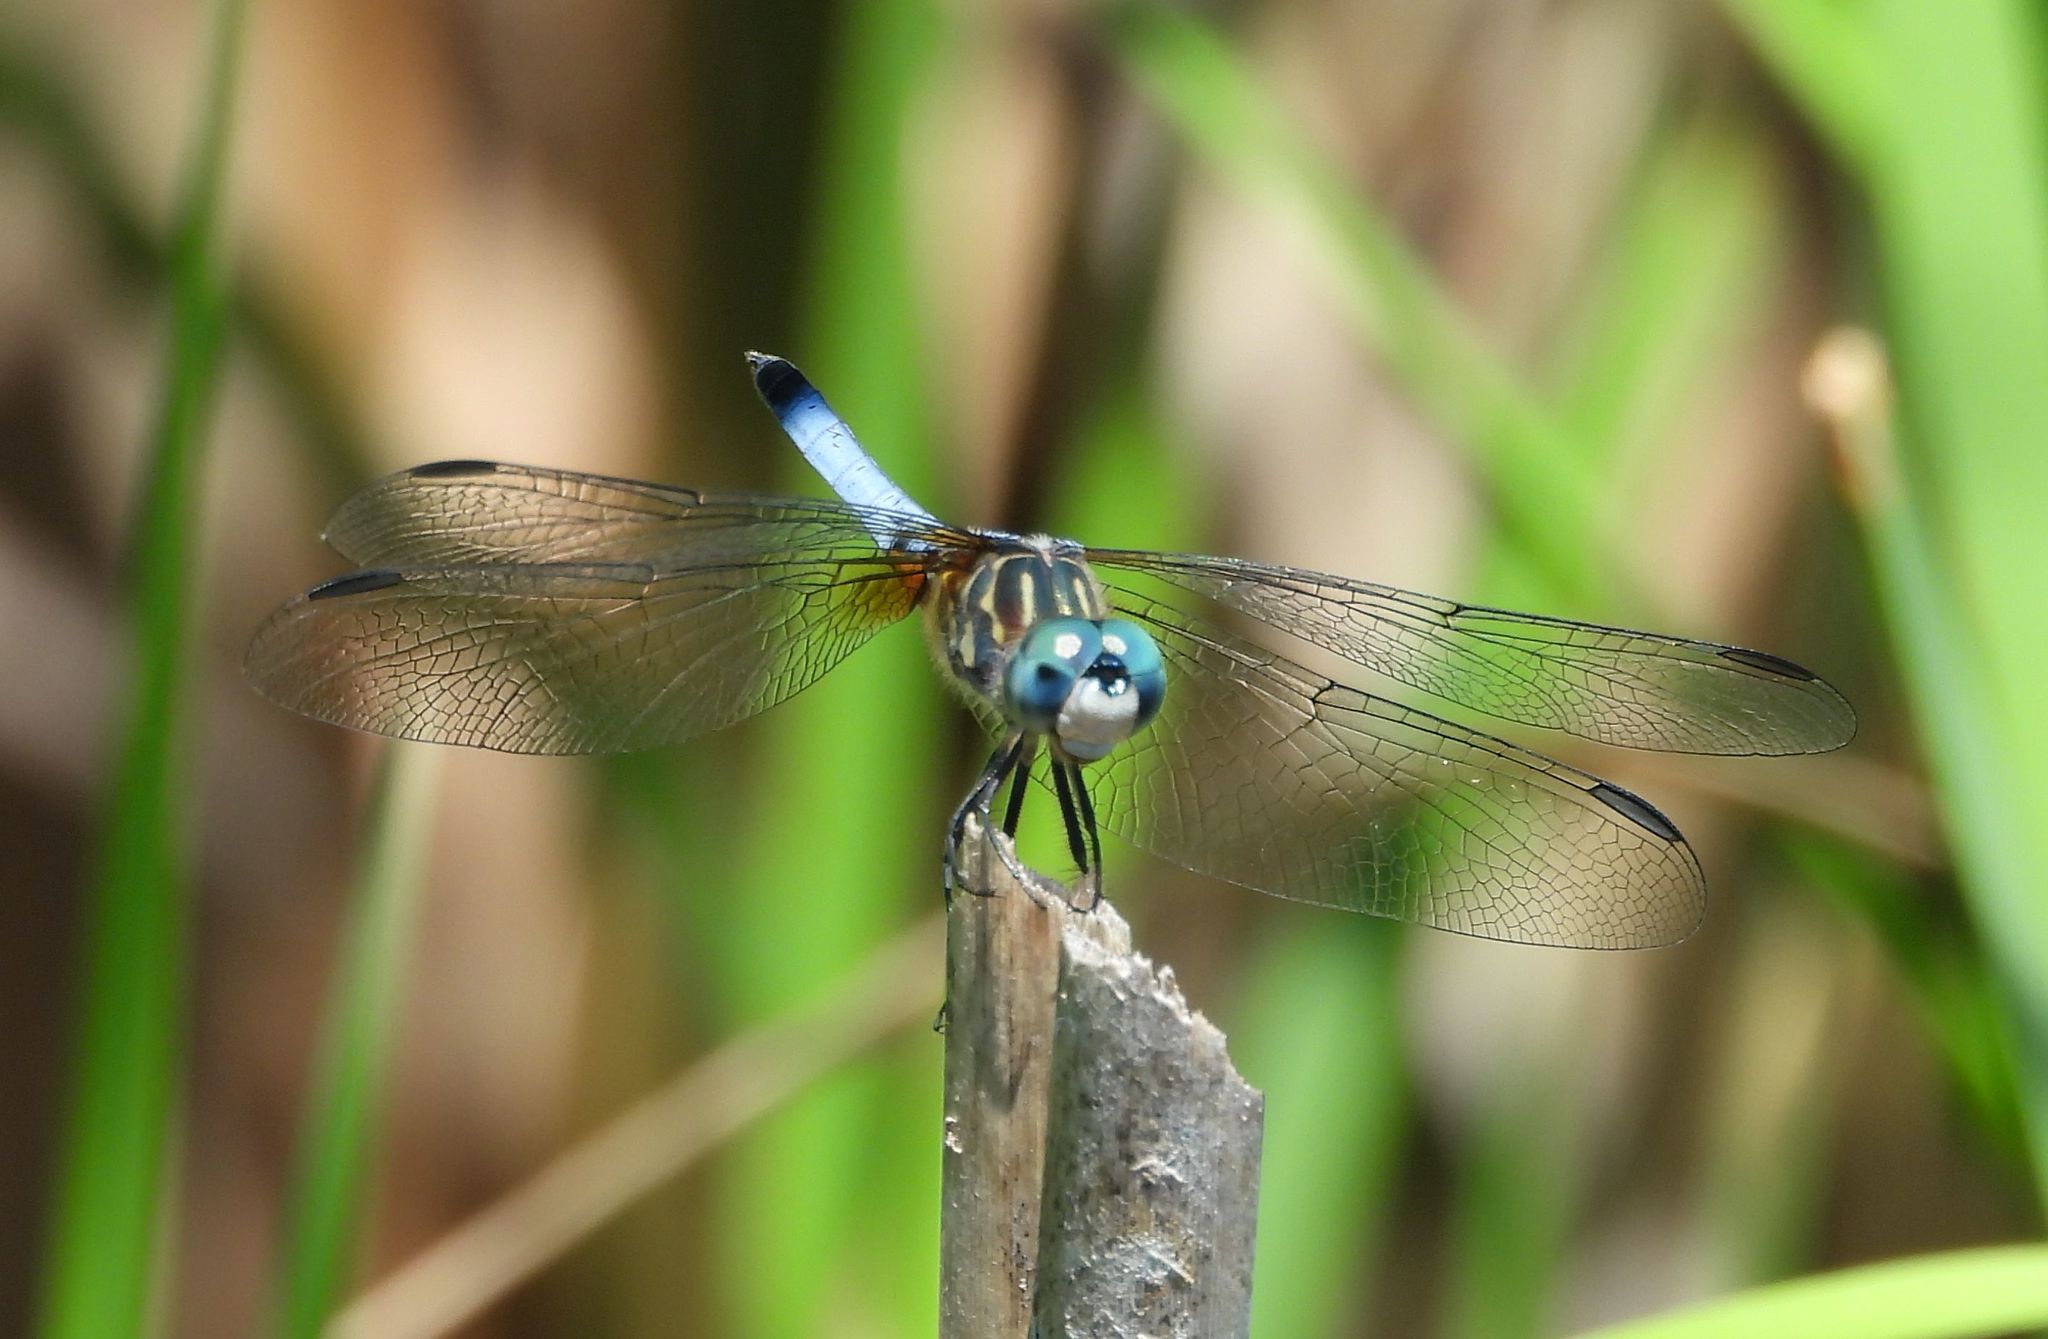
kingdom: Animalia
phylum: Arthropoda
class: Insecta
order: Odonata
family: Libellulidae
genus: Pachydiplax
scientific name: Pachydiplax longipennis
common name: Blue dasher
